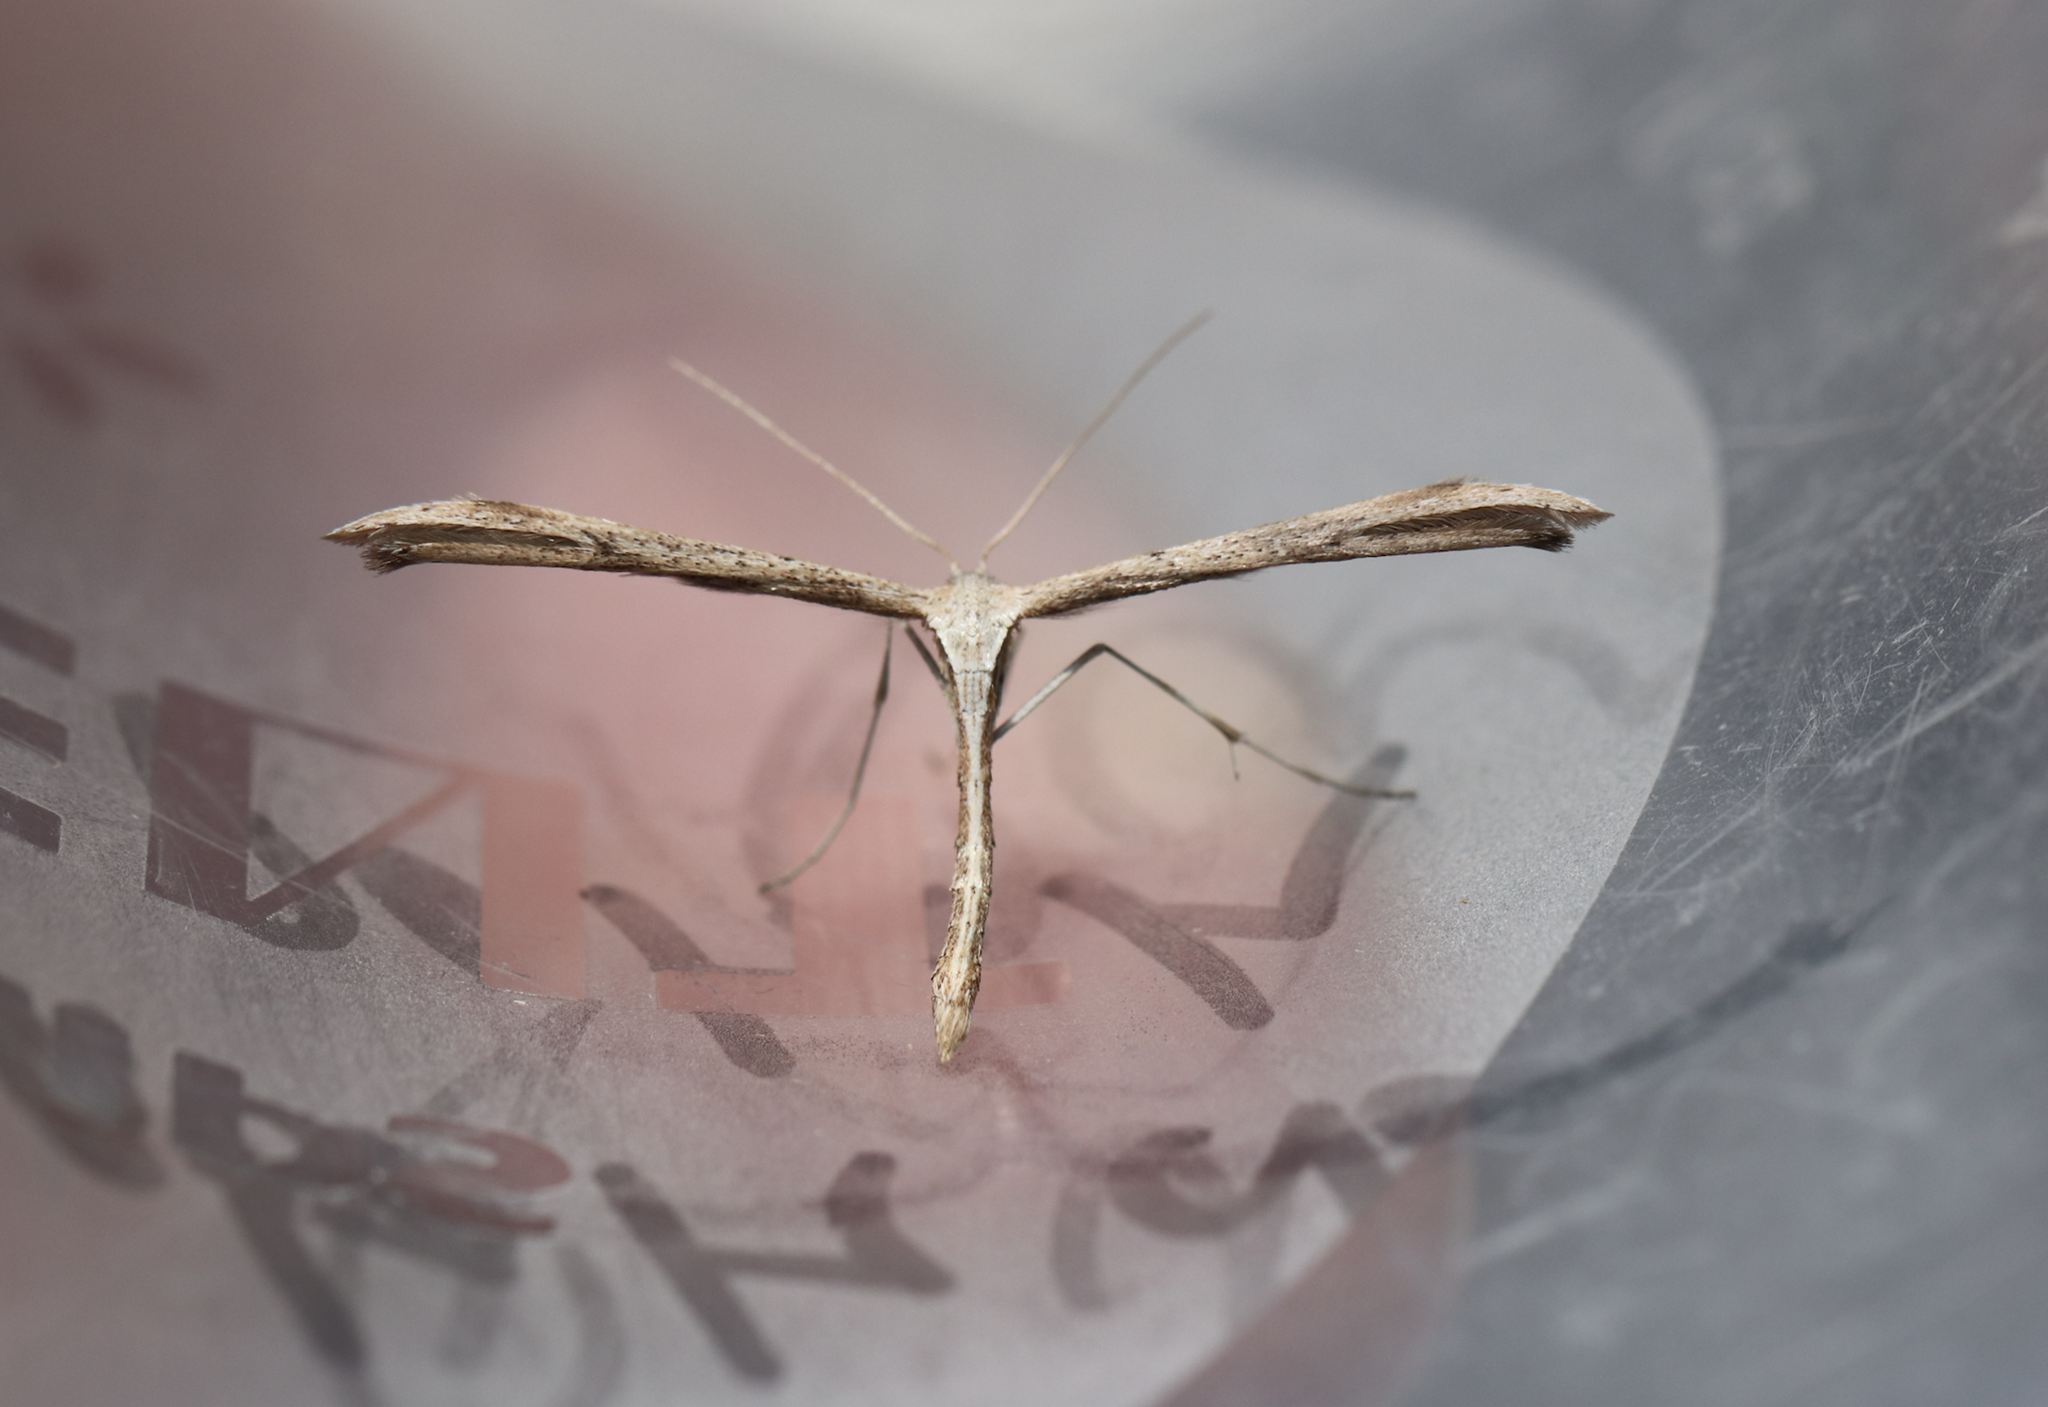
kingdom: Animalia
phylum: Arthropoda
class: Insecta
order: Lepidoptera
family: Pterophoridae
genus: Emmelina
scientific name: Emmelina monodactyla
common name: Common plume
